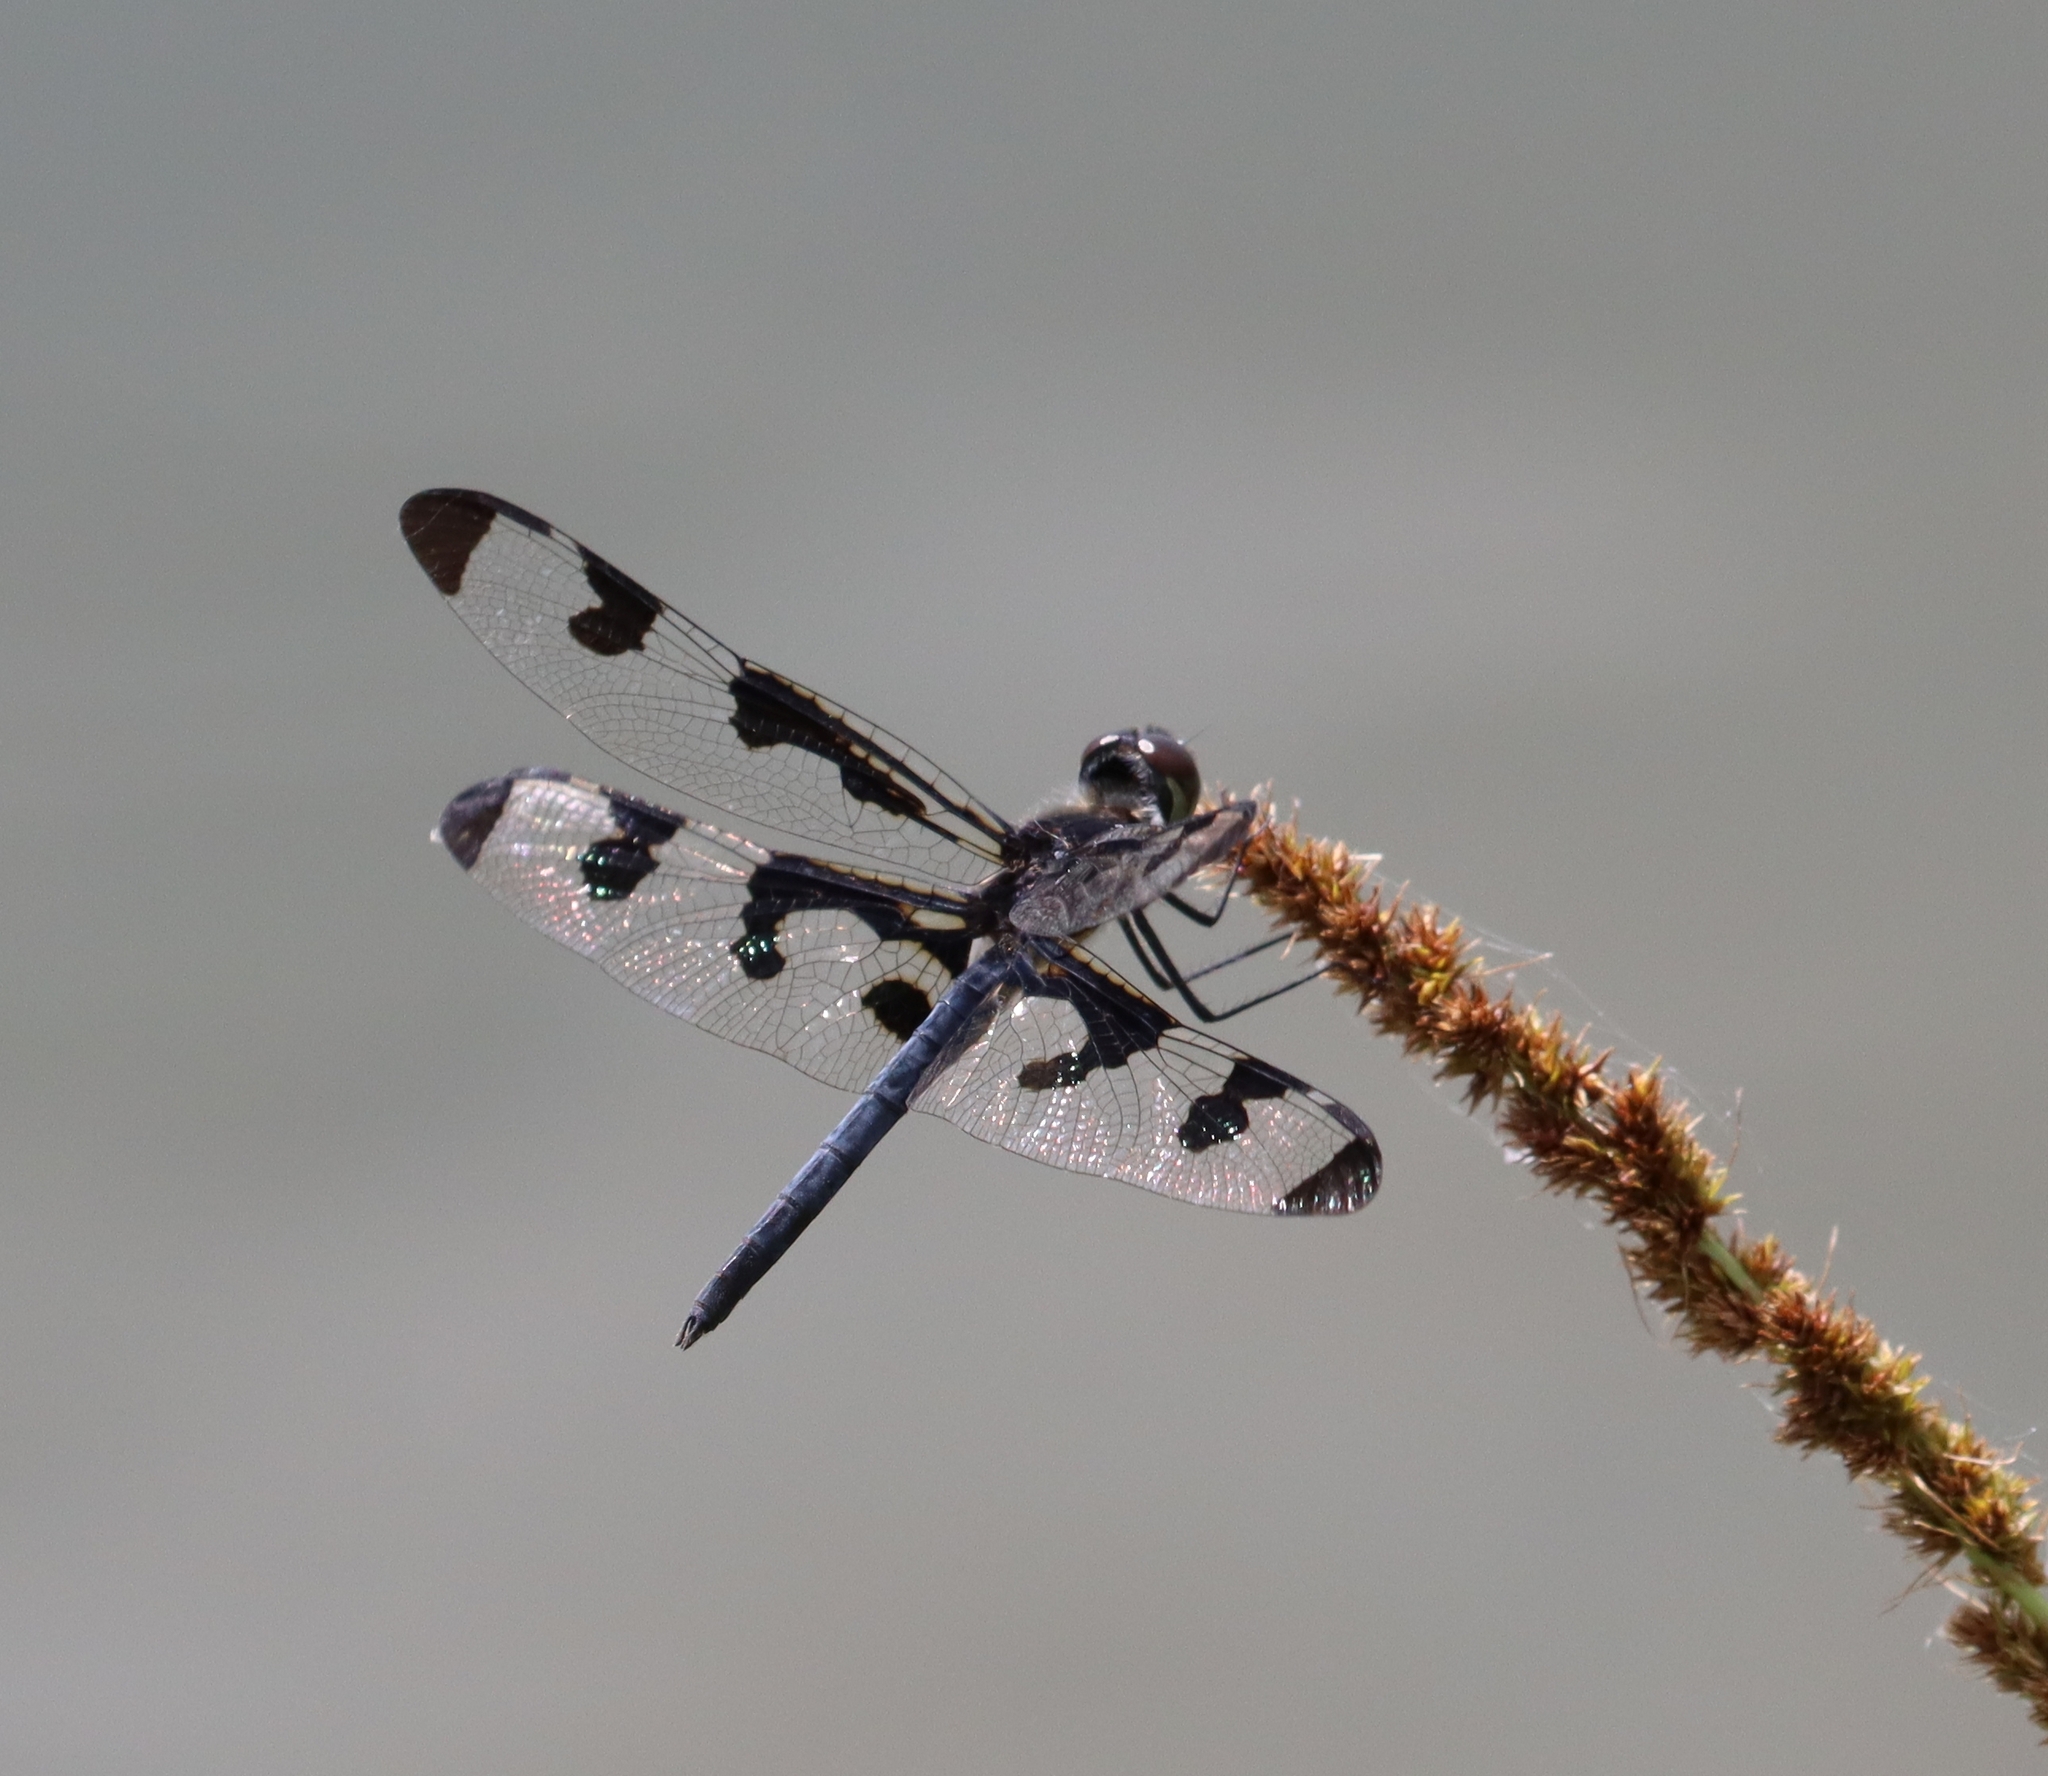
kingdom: Animalia
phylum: Arthropoda
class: Insecta
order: Odonata
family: Libellulidae
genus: Celithemis
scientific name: Celithemis fasciata
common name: Banded pennant
